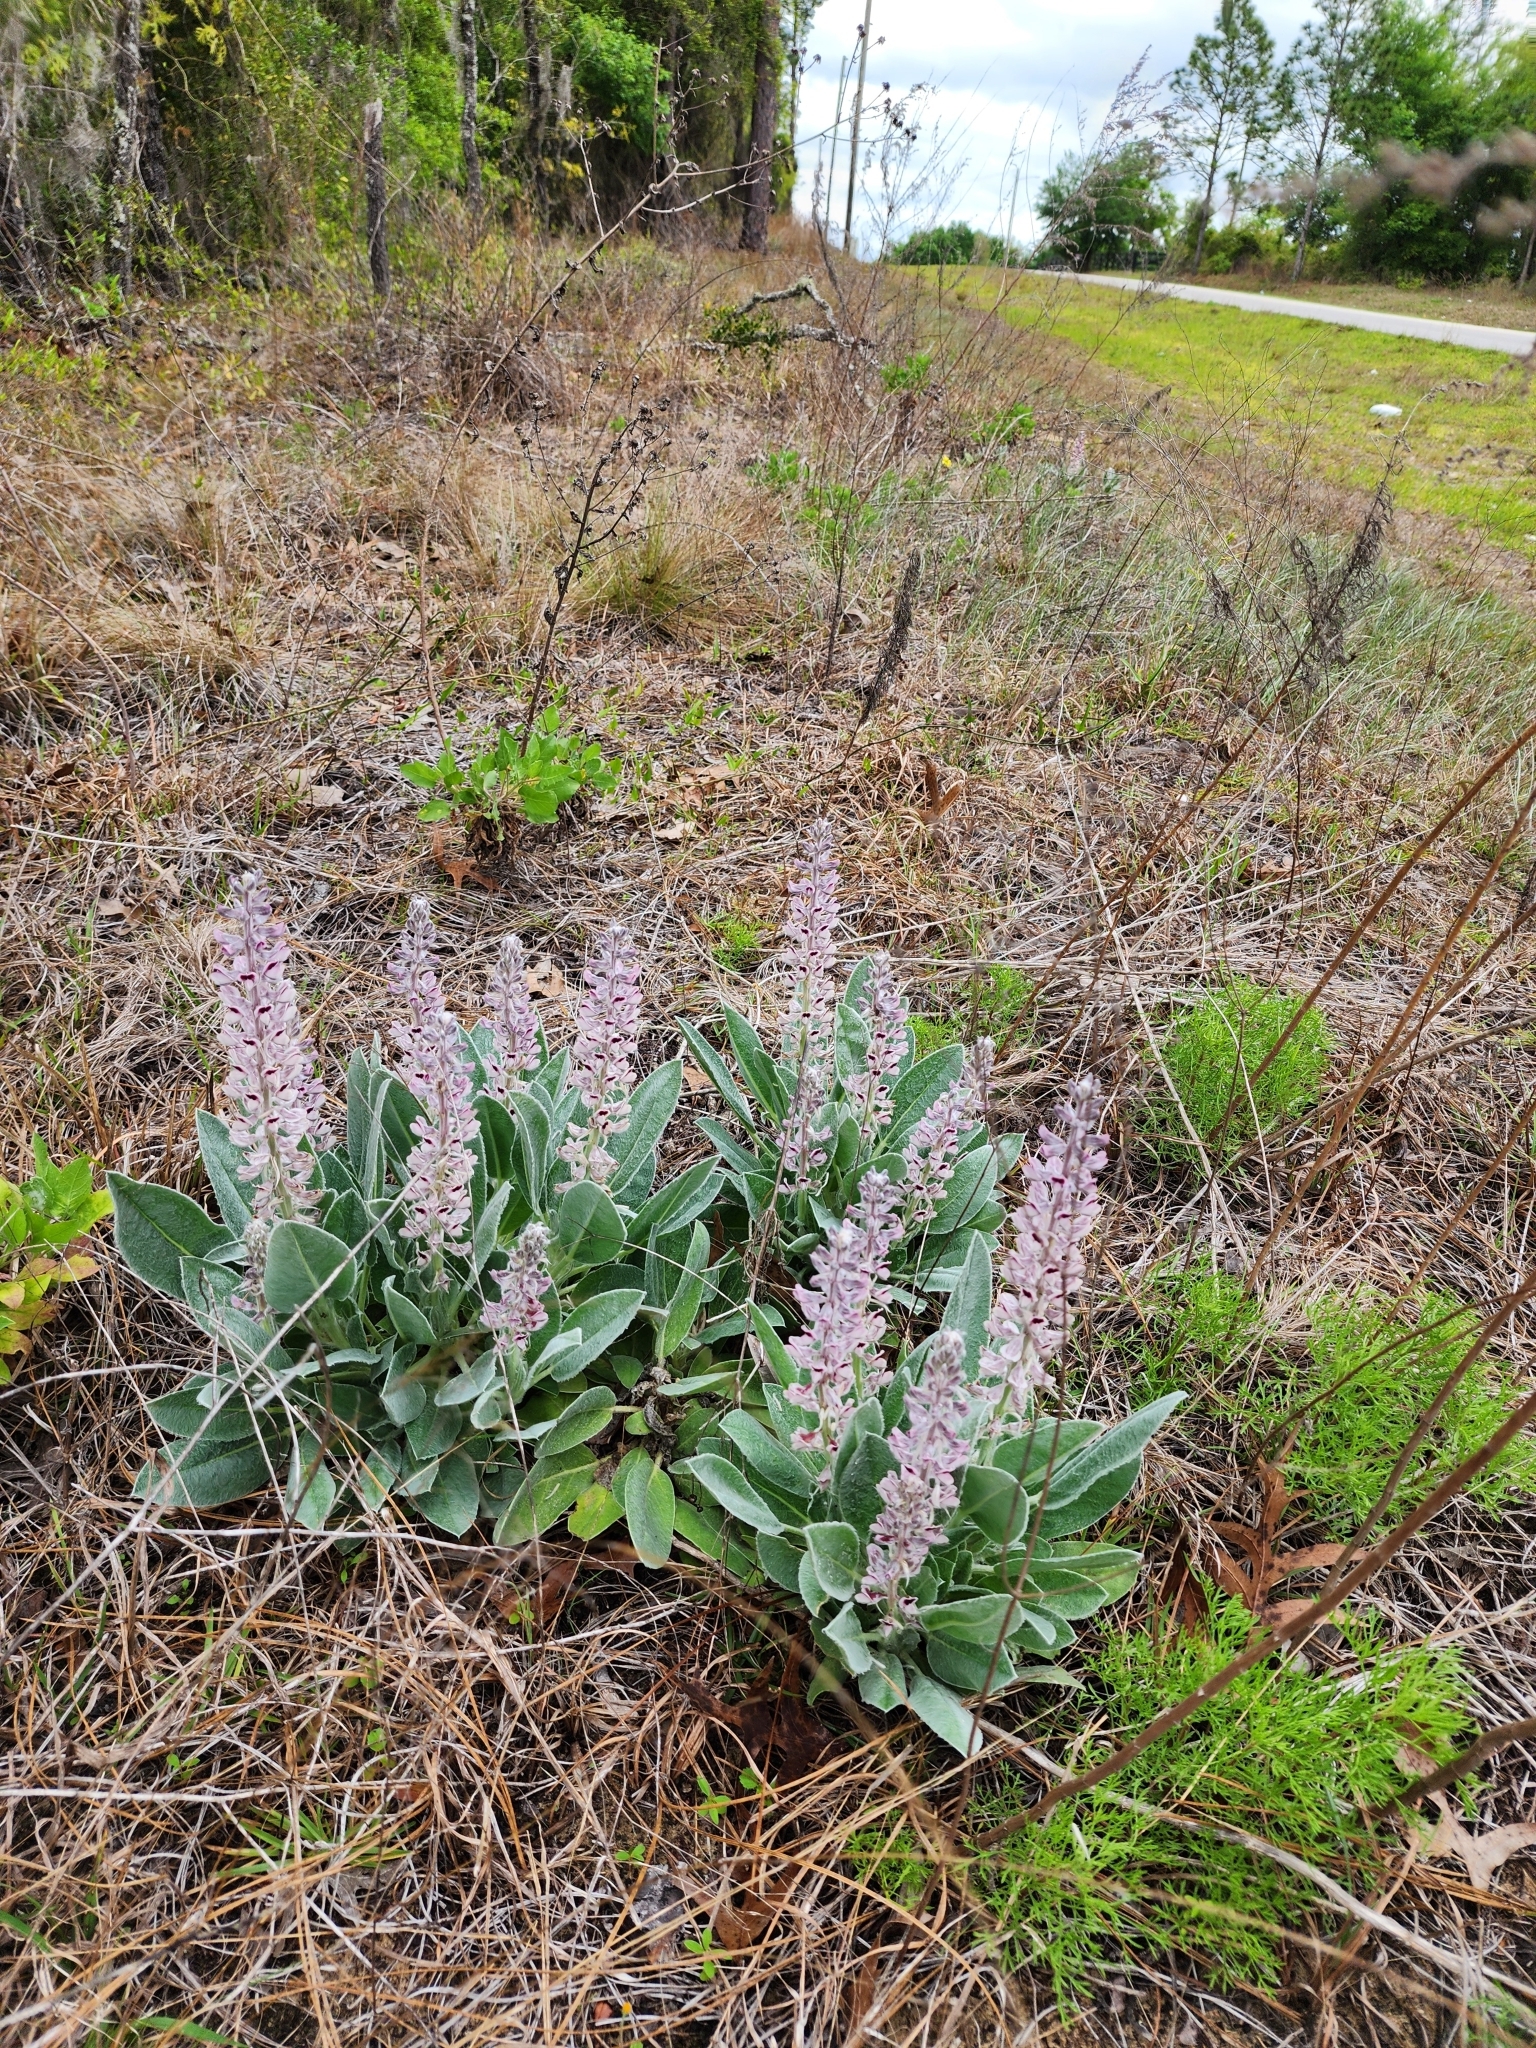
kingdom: Plantae
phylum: Tracheophyta
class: Magnoliopsida
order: Fabales
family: Fabaceae
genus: Lupinus
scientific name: Lupinus villosus
